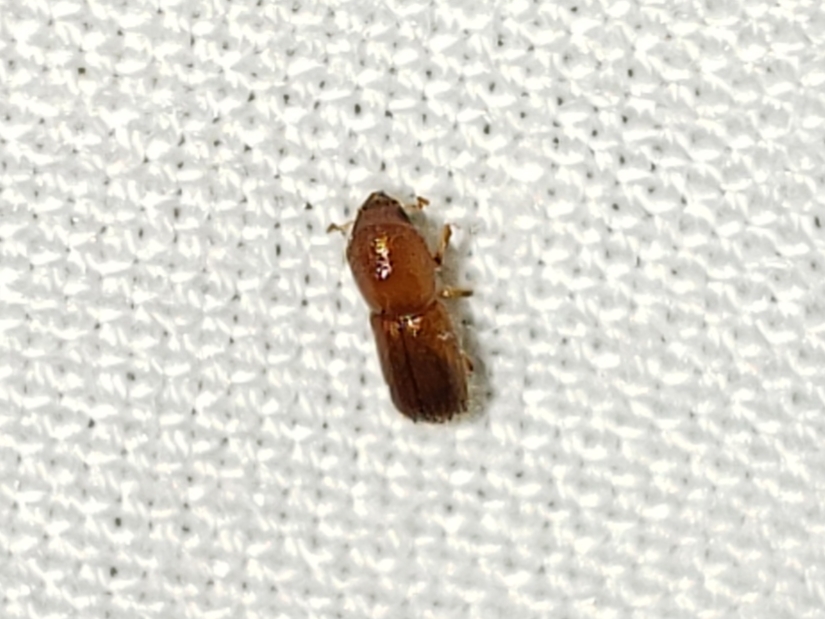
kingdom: Animalia
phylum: Arthropoda
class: Insecta
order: Coleoptera
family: Curculionidae
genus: Xyleborus
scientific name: Xyleborus volvulus
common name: Bark beetle
